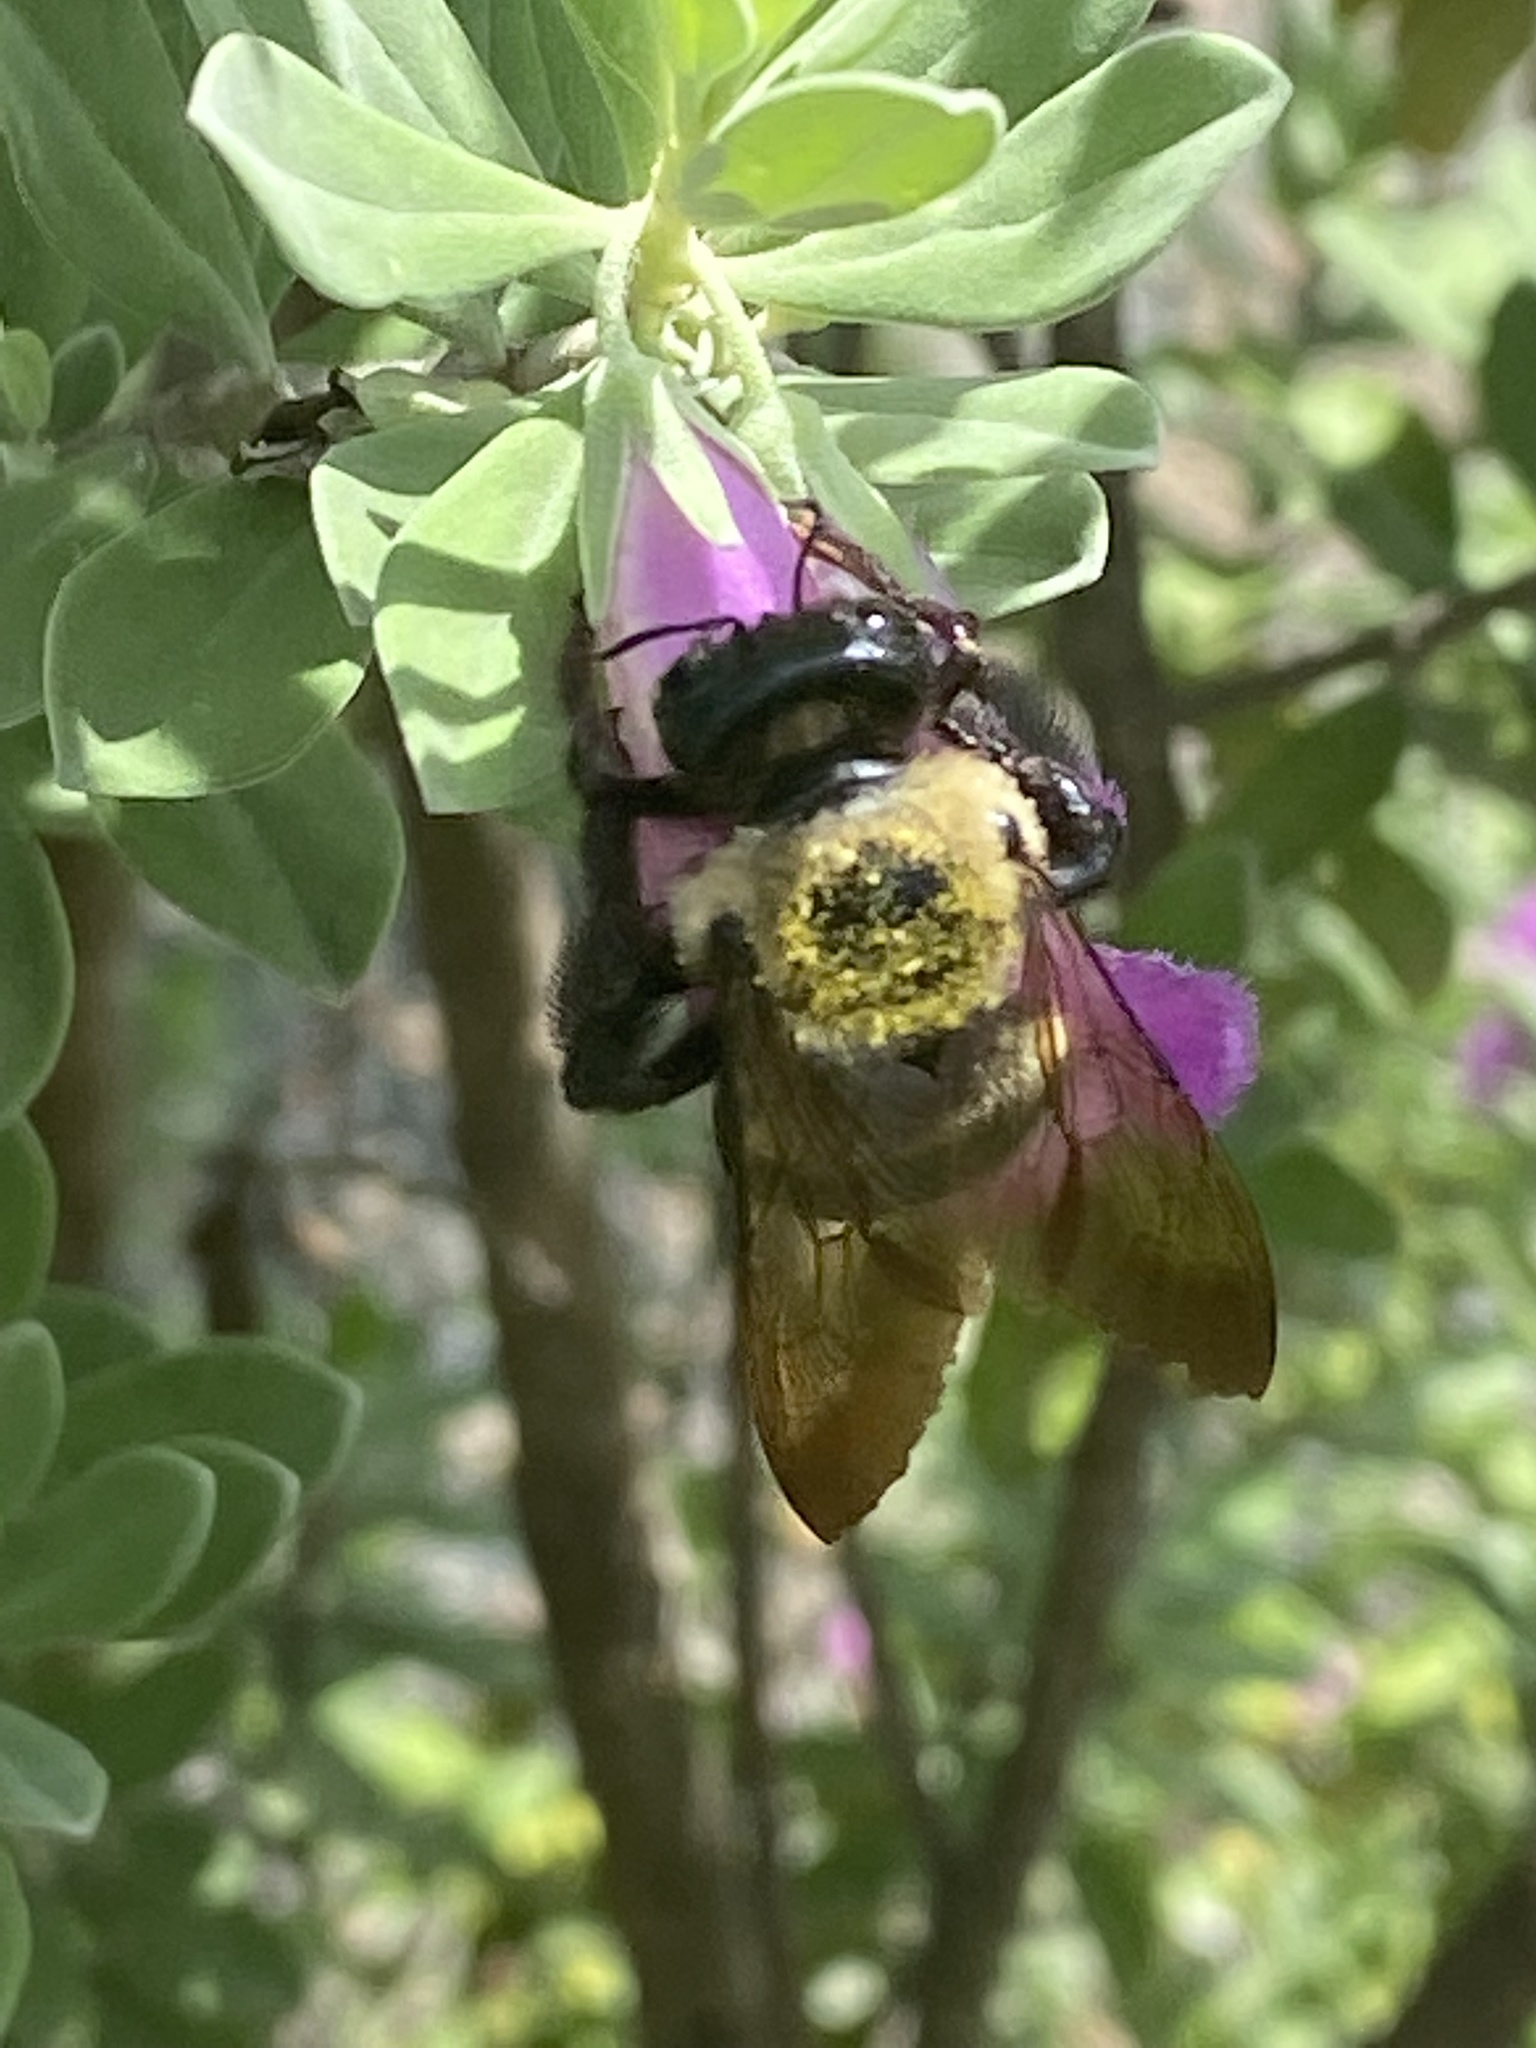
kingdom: Animalia
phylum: Arthropoda
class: Insecta
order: Hymenoptera
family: Apidae
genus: Xylocopa
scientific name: Xylocopa virginica
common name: Carpenter bee
